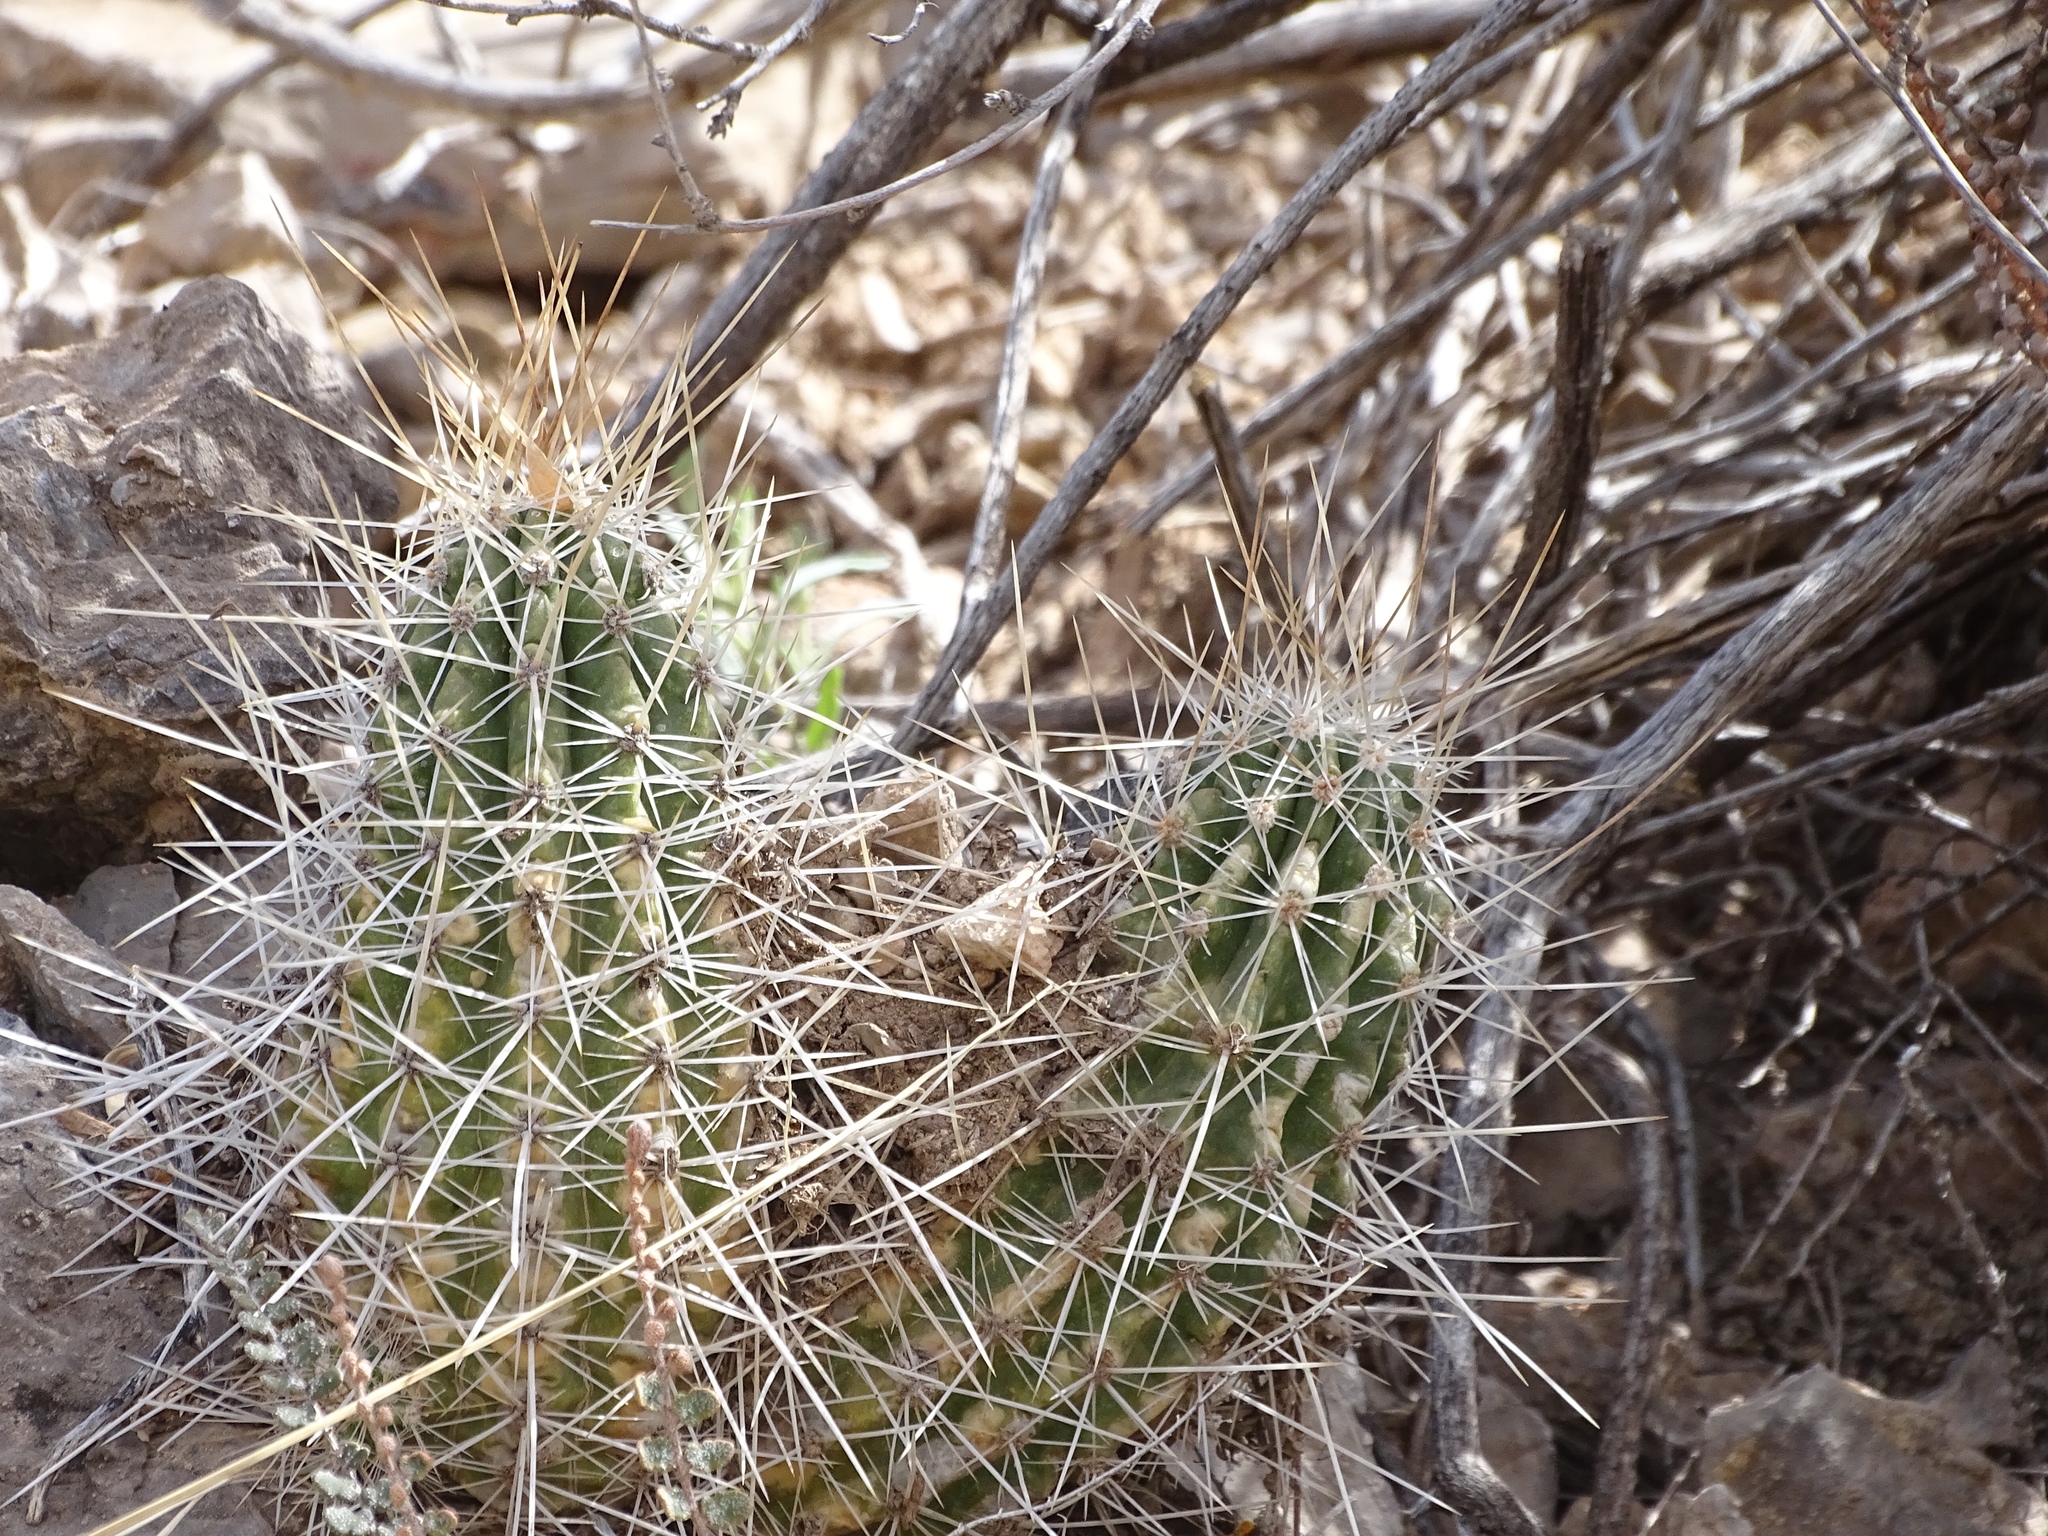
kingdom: Plantae
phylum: Tracheophyta
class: Magnoliopsida
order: Caryophyllales
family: Cactaceae
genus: Echinocereus
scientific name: Echinocereus stramineus
